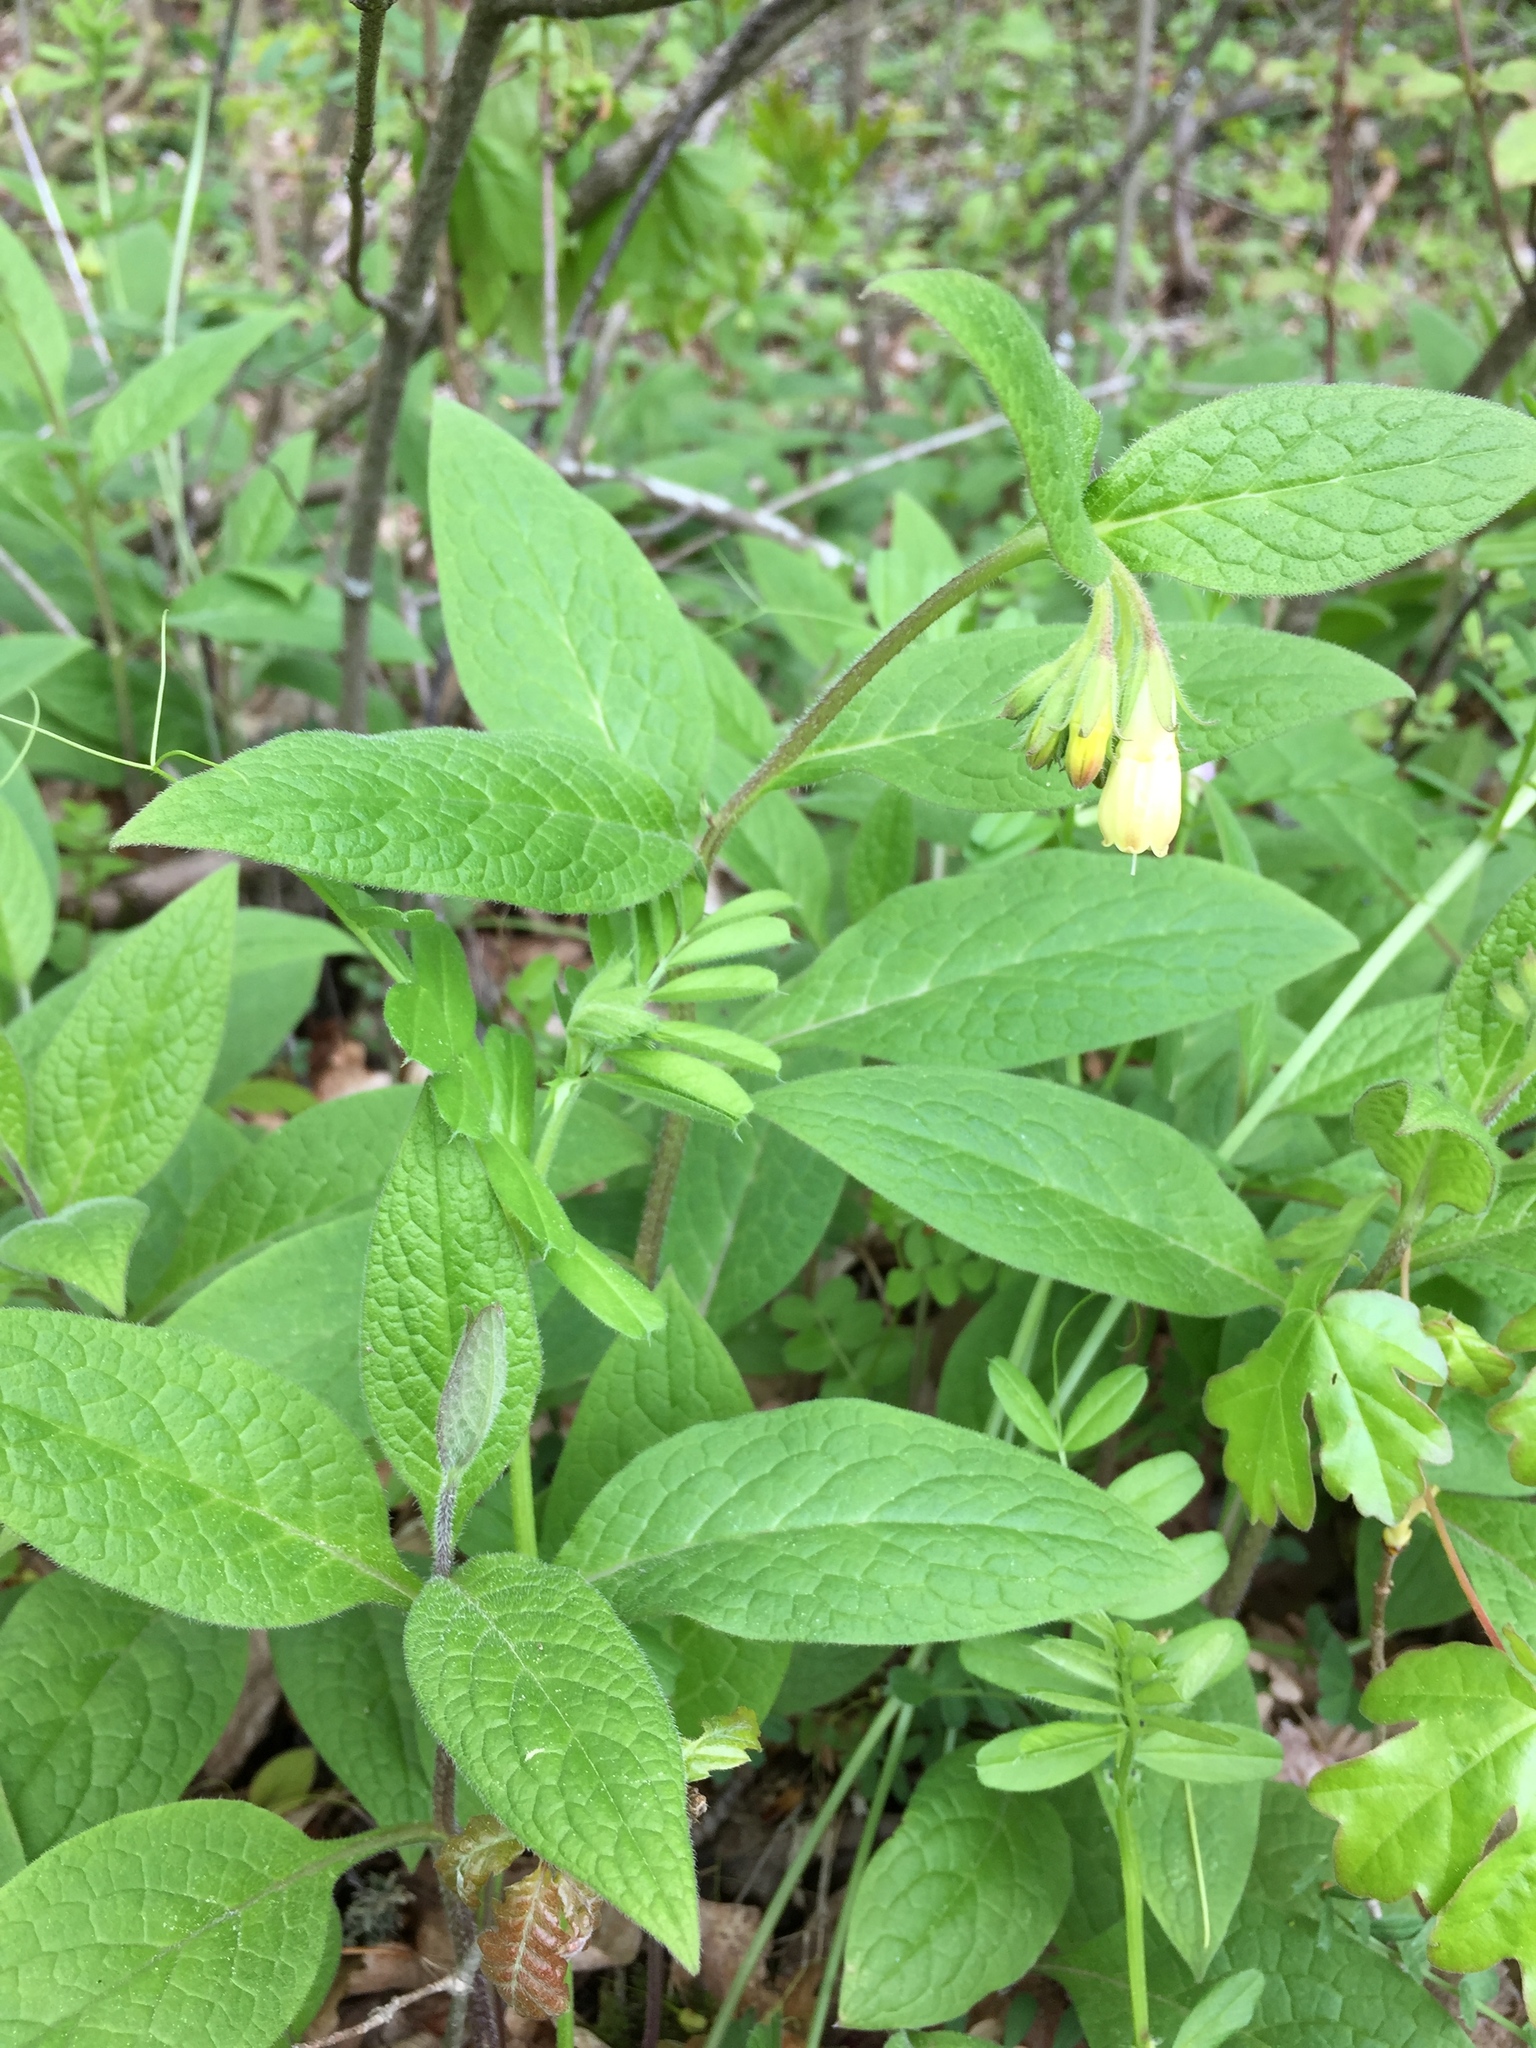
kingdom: Plantae
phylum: Tracheophyta
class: Magnoliopsida
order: Boraginales
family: Boraginaceae
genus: Symphytum
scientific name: Symphytum tuberosum
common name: Tuberous comfrey
